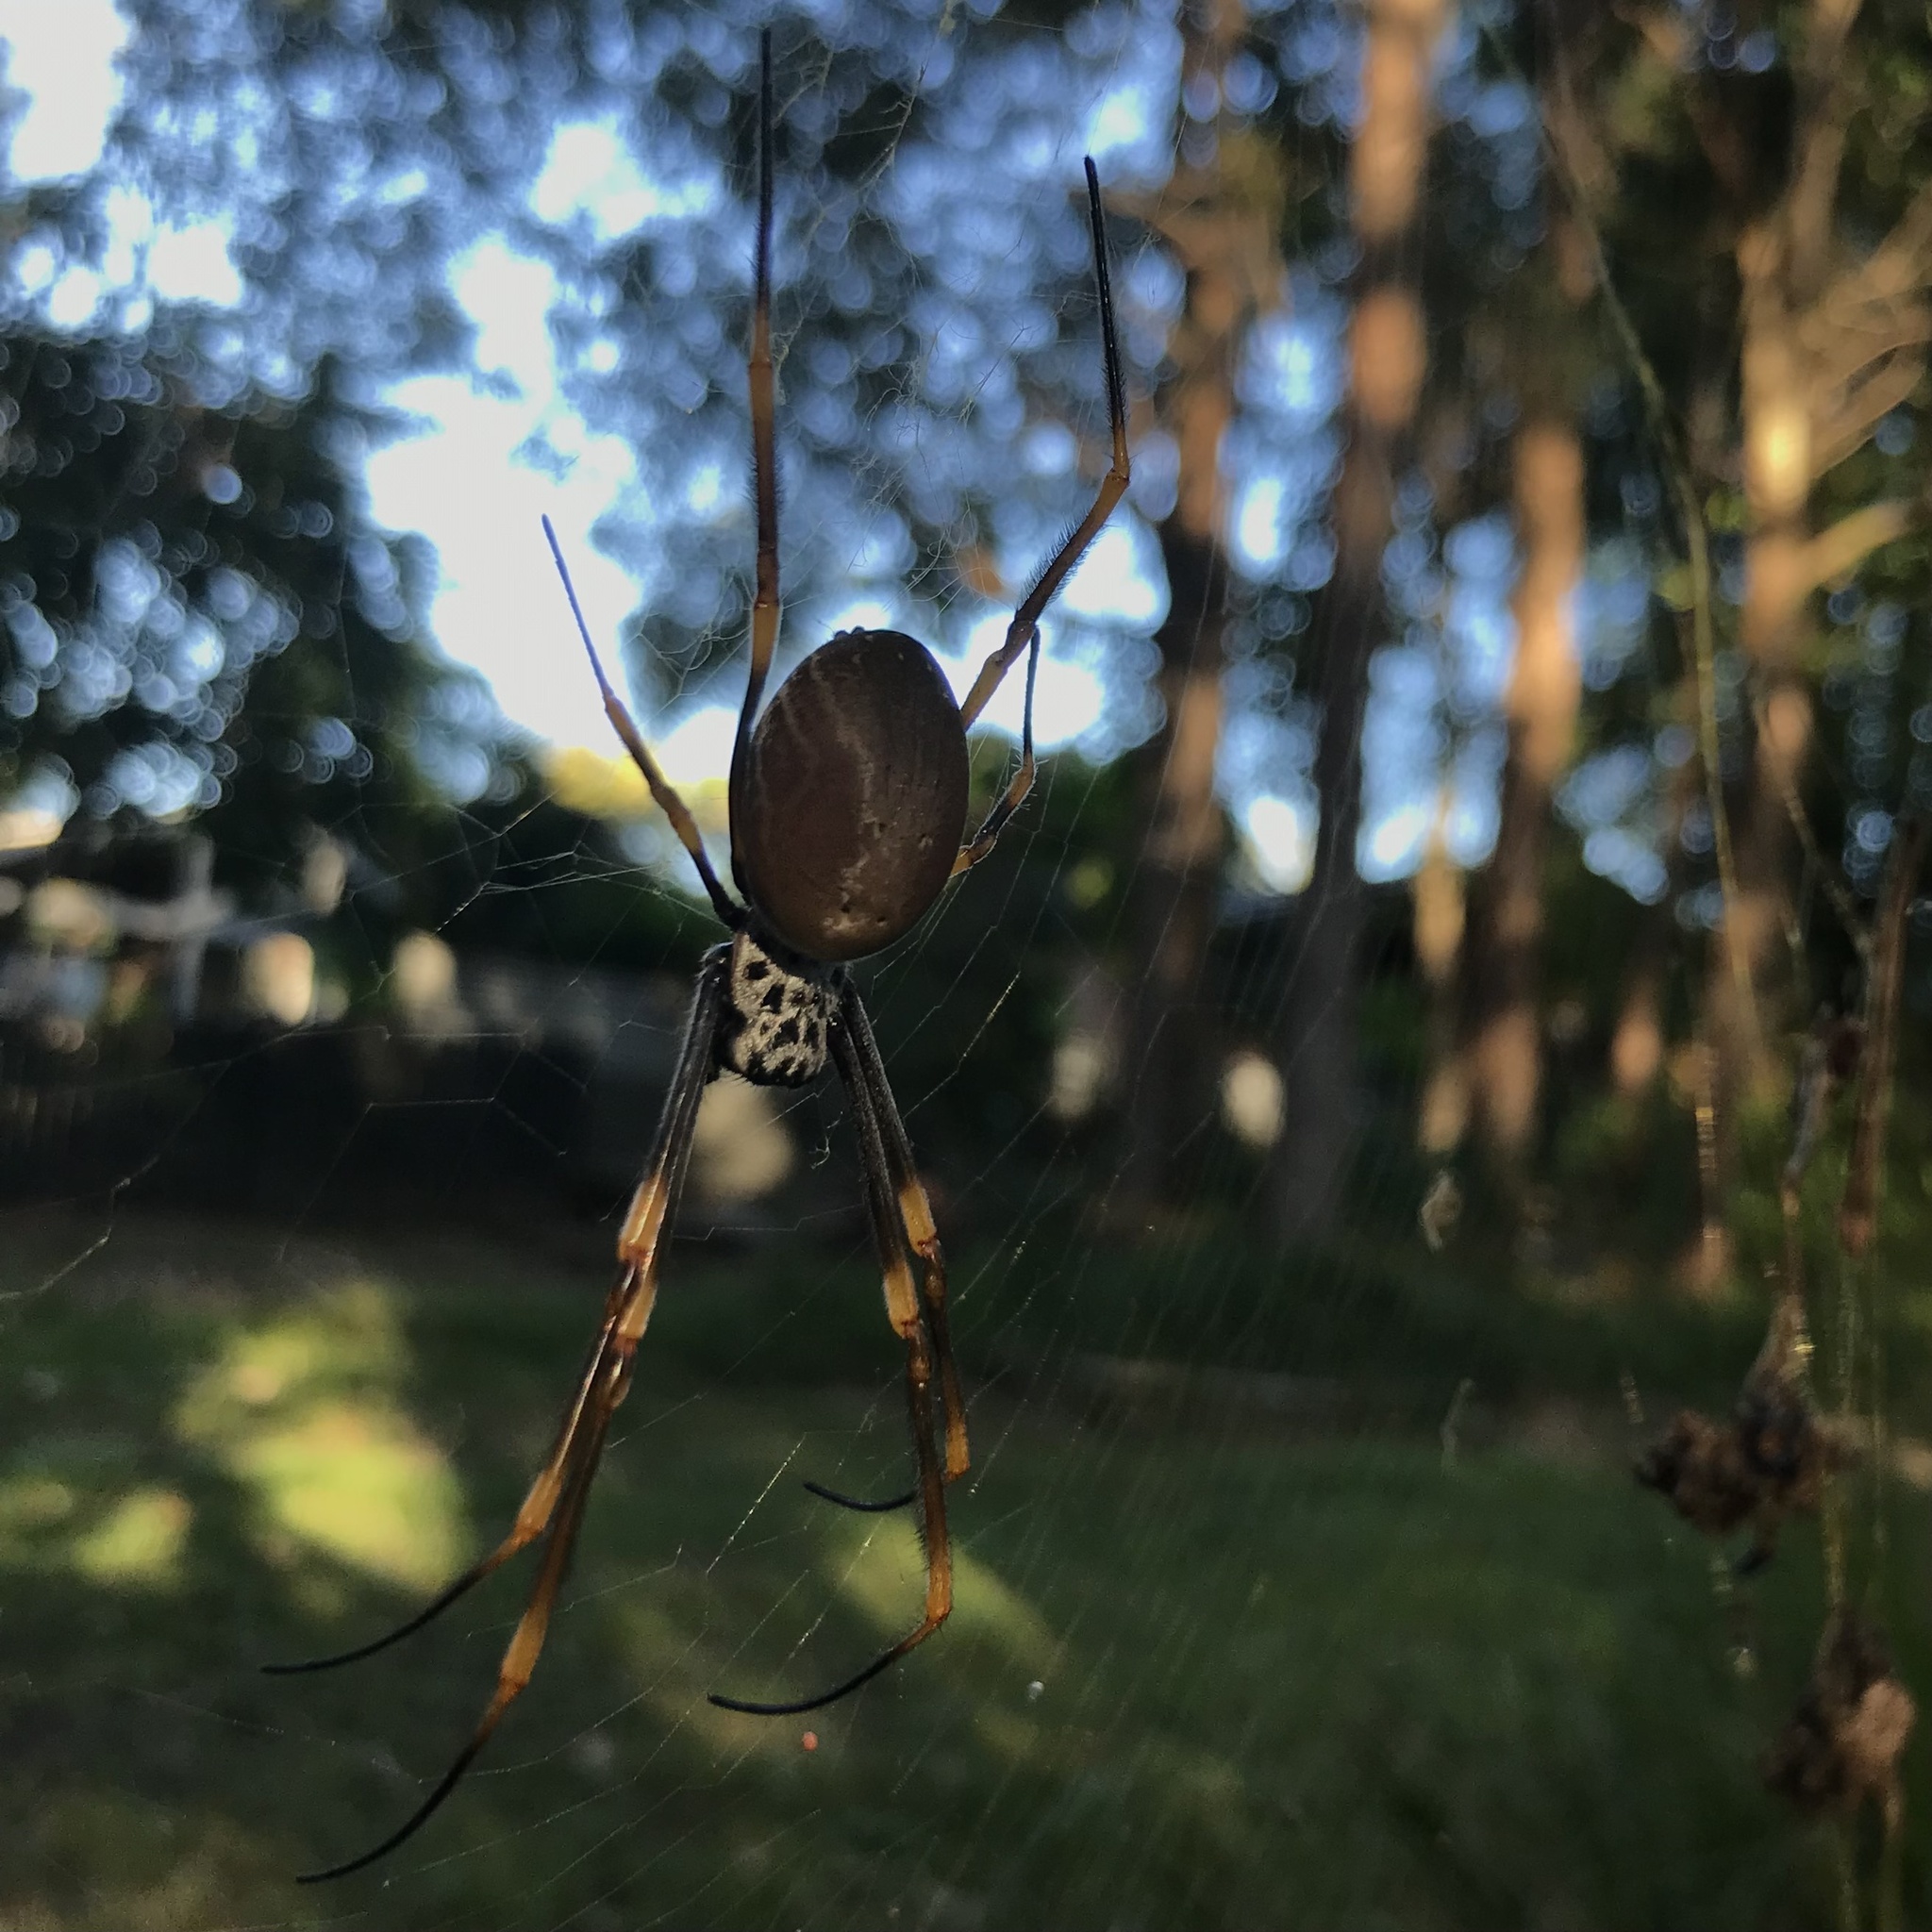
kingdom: Animalia
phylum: Arthropoda
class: Arachnida
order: Araneae
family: Araneidae
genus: Trichonephila
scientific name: Trichonephila plumipes
